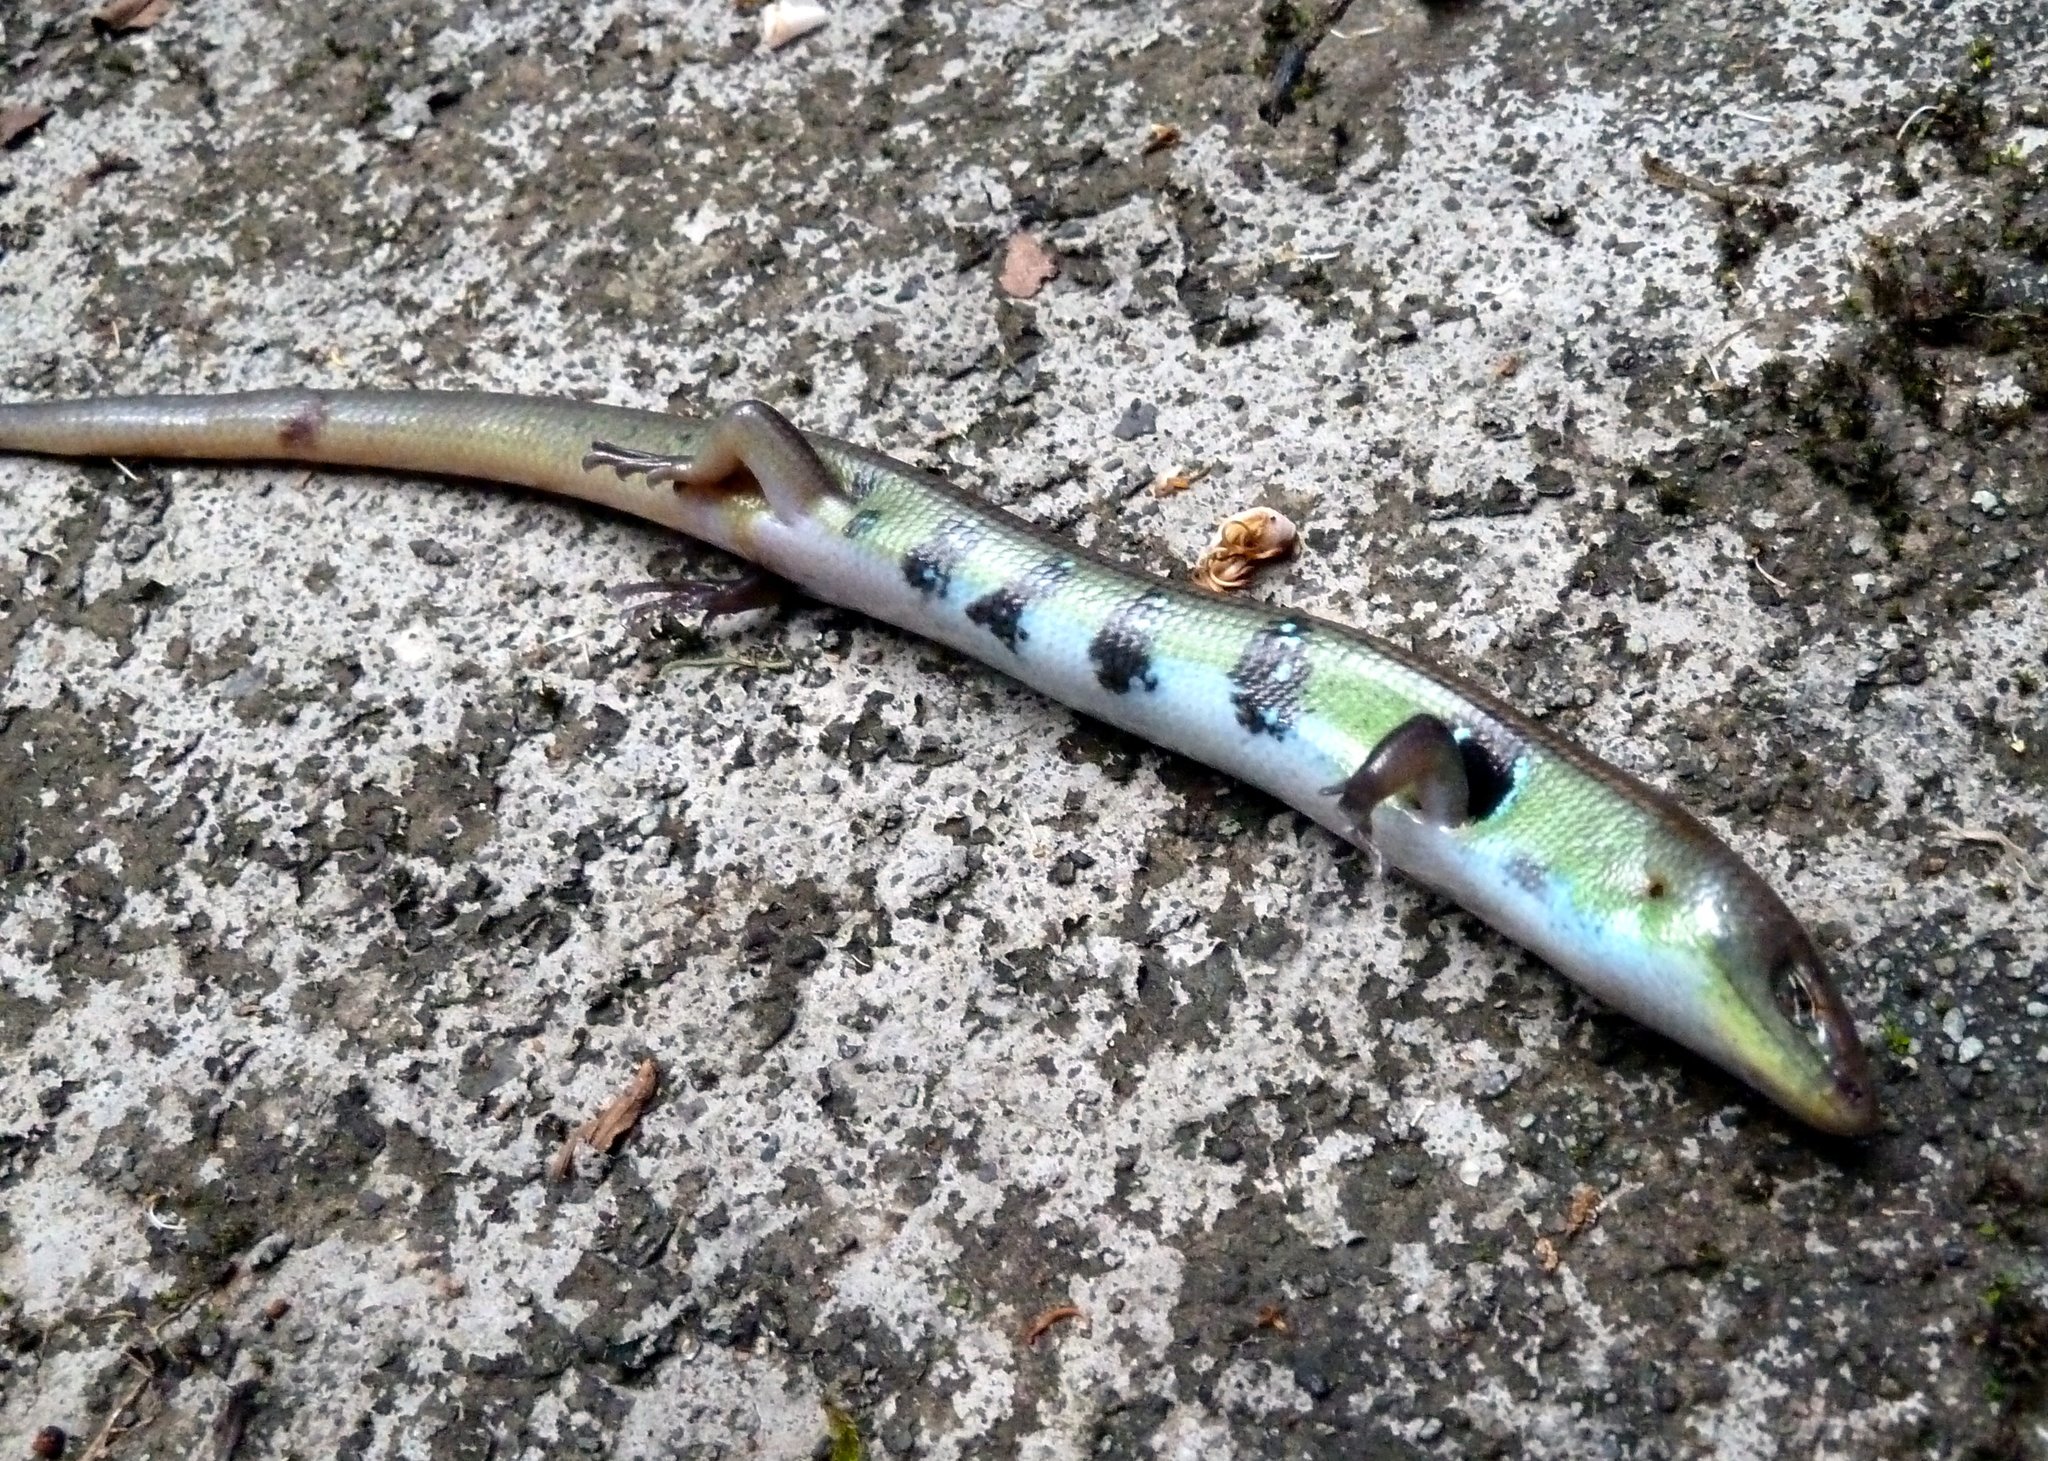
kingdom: Animalia
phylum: Chordata
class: Squamata
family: Diploglossidae
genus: Mesoamericus
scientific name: Mesoamericus
